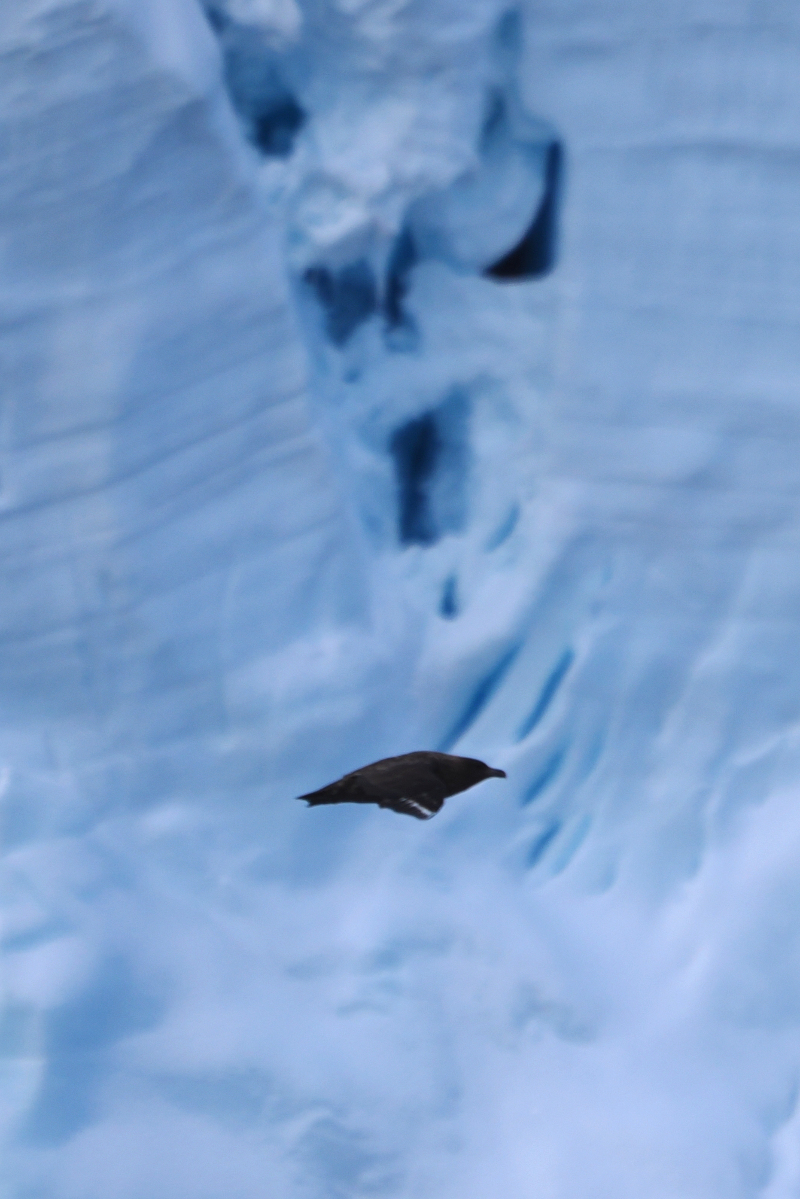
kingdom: Animalia
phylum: Chordata
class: Aves
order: Charadriiformes
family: Stercorariidae
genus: Stercorarius
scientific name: Stercorarius antarcticus
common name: Brown skua
